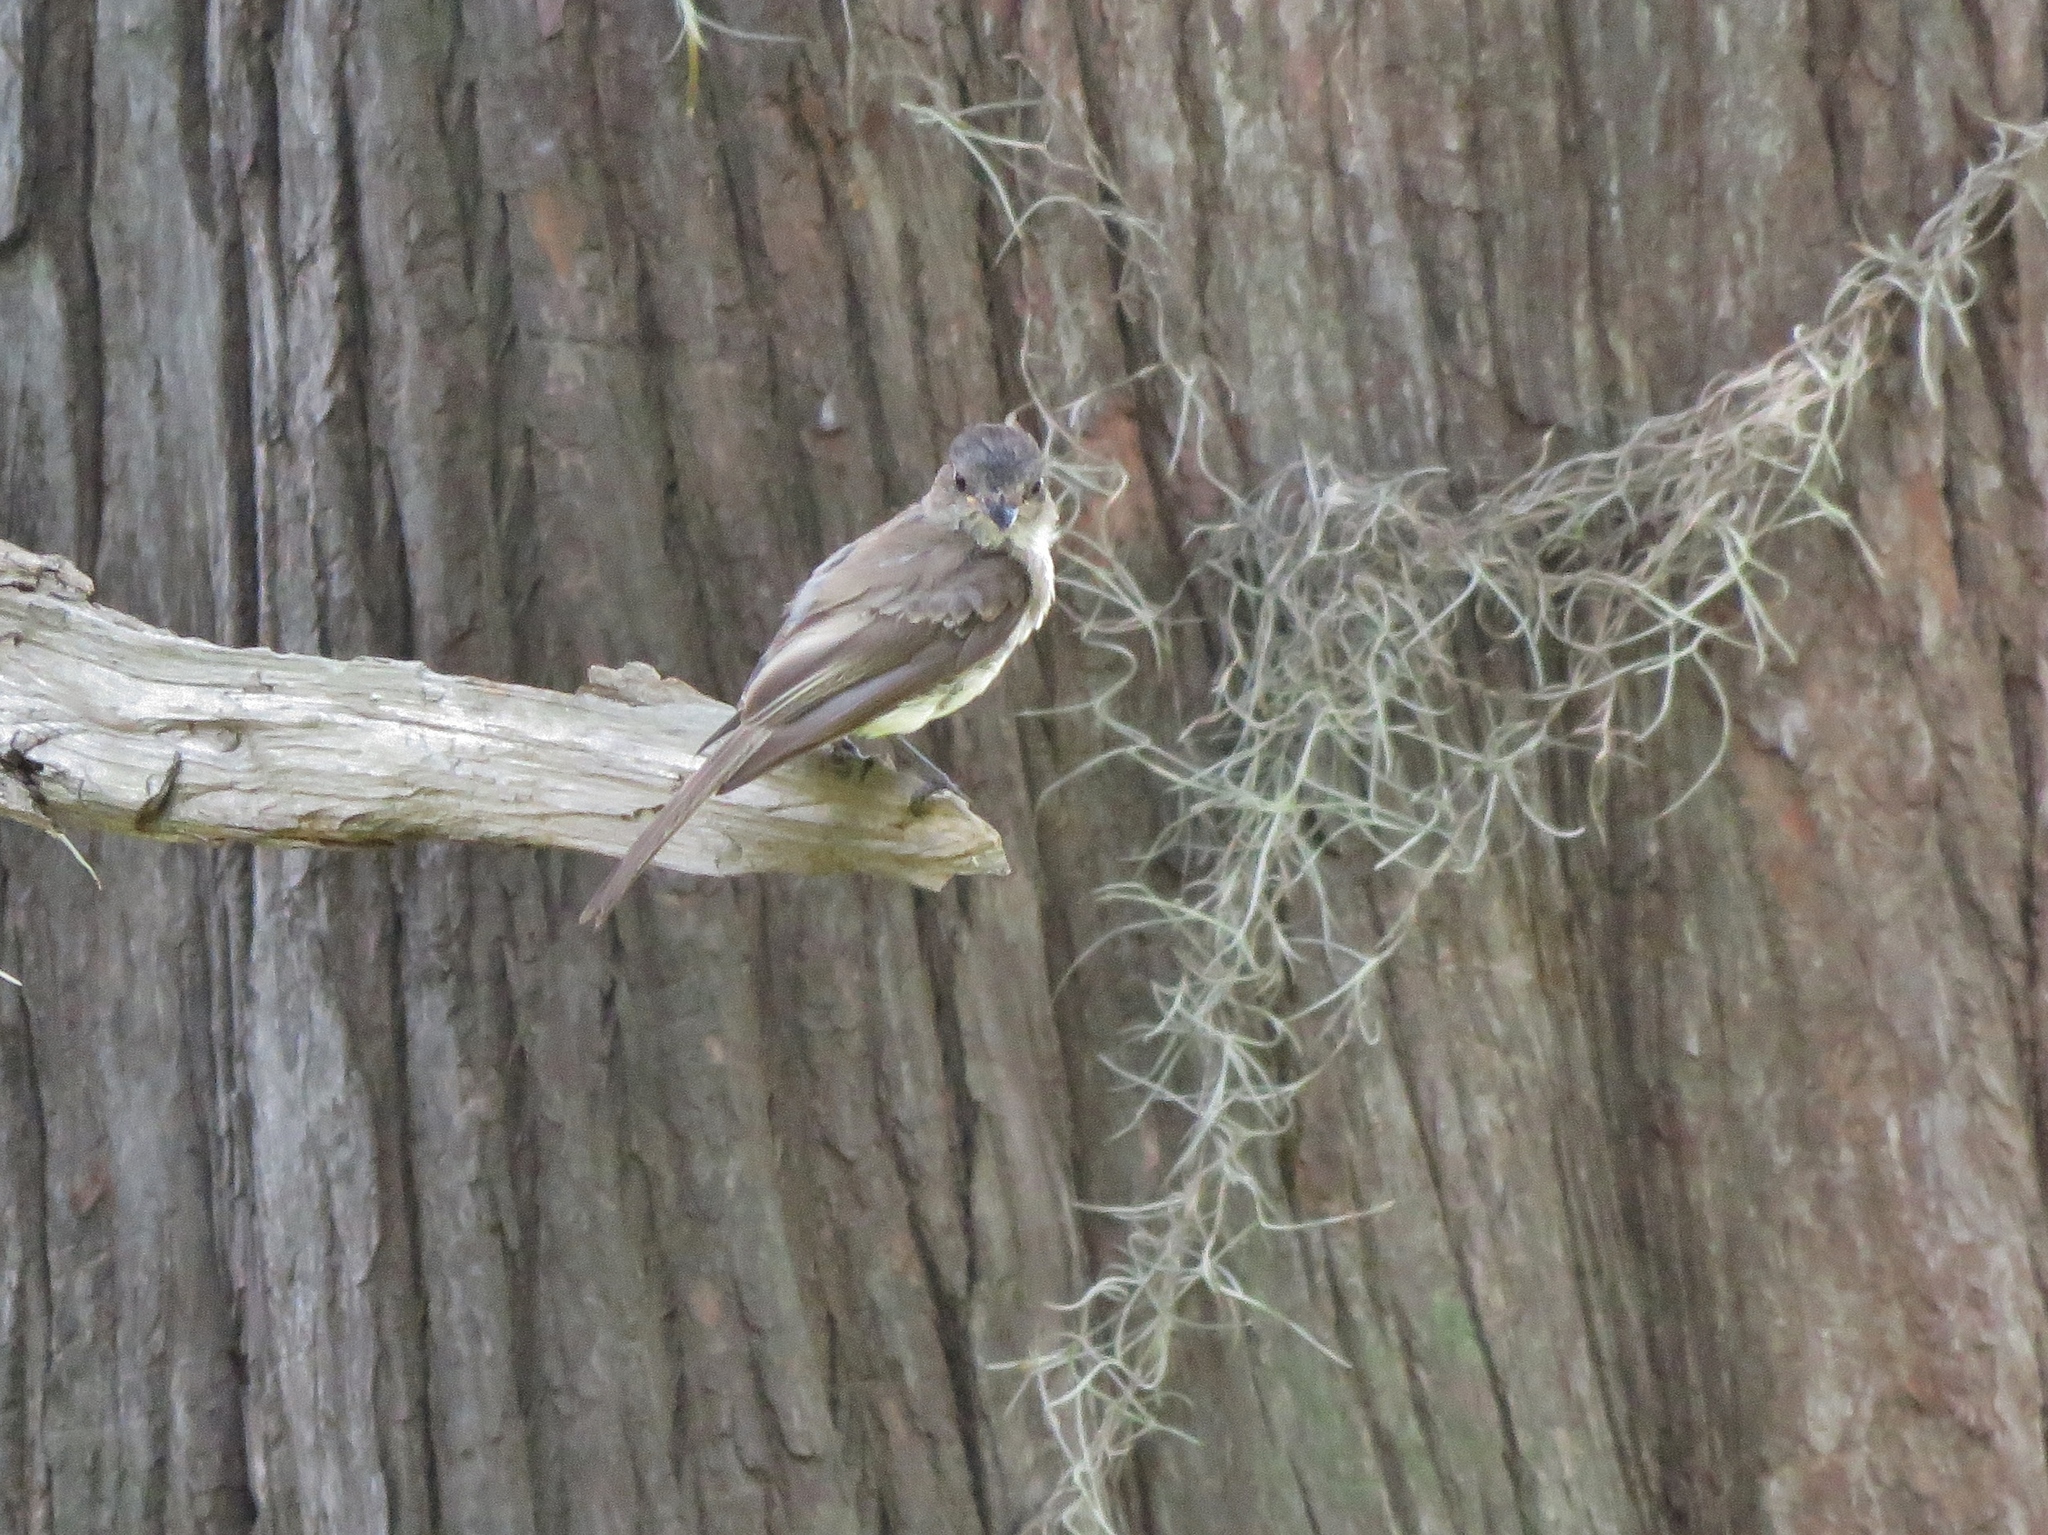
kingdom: Animalia
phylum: Chordata
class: Aves
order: Passeriformes
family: Tyrannidae
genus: Sayornis
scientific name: Sayornis phoebe
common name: Eastern phoebe
